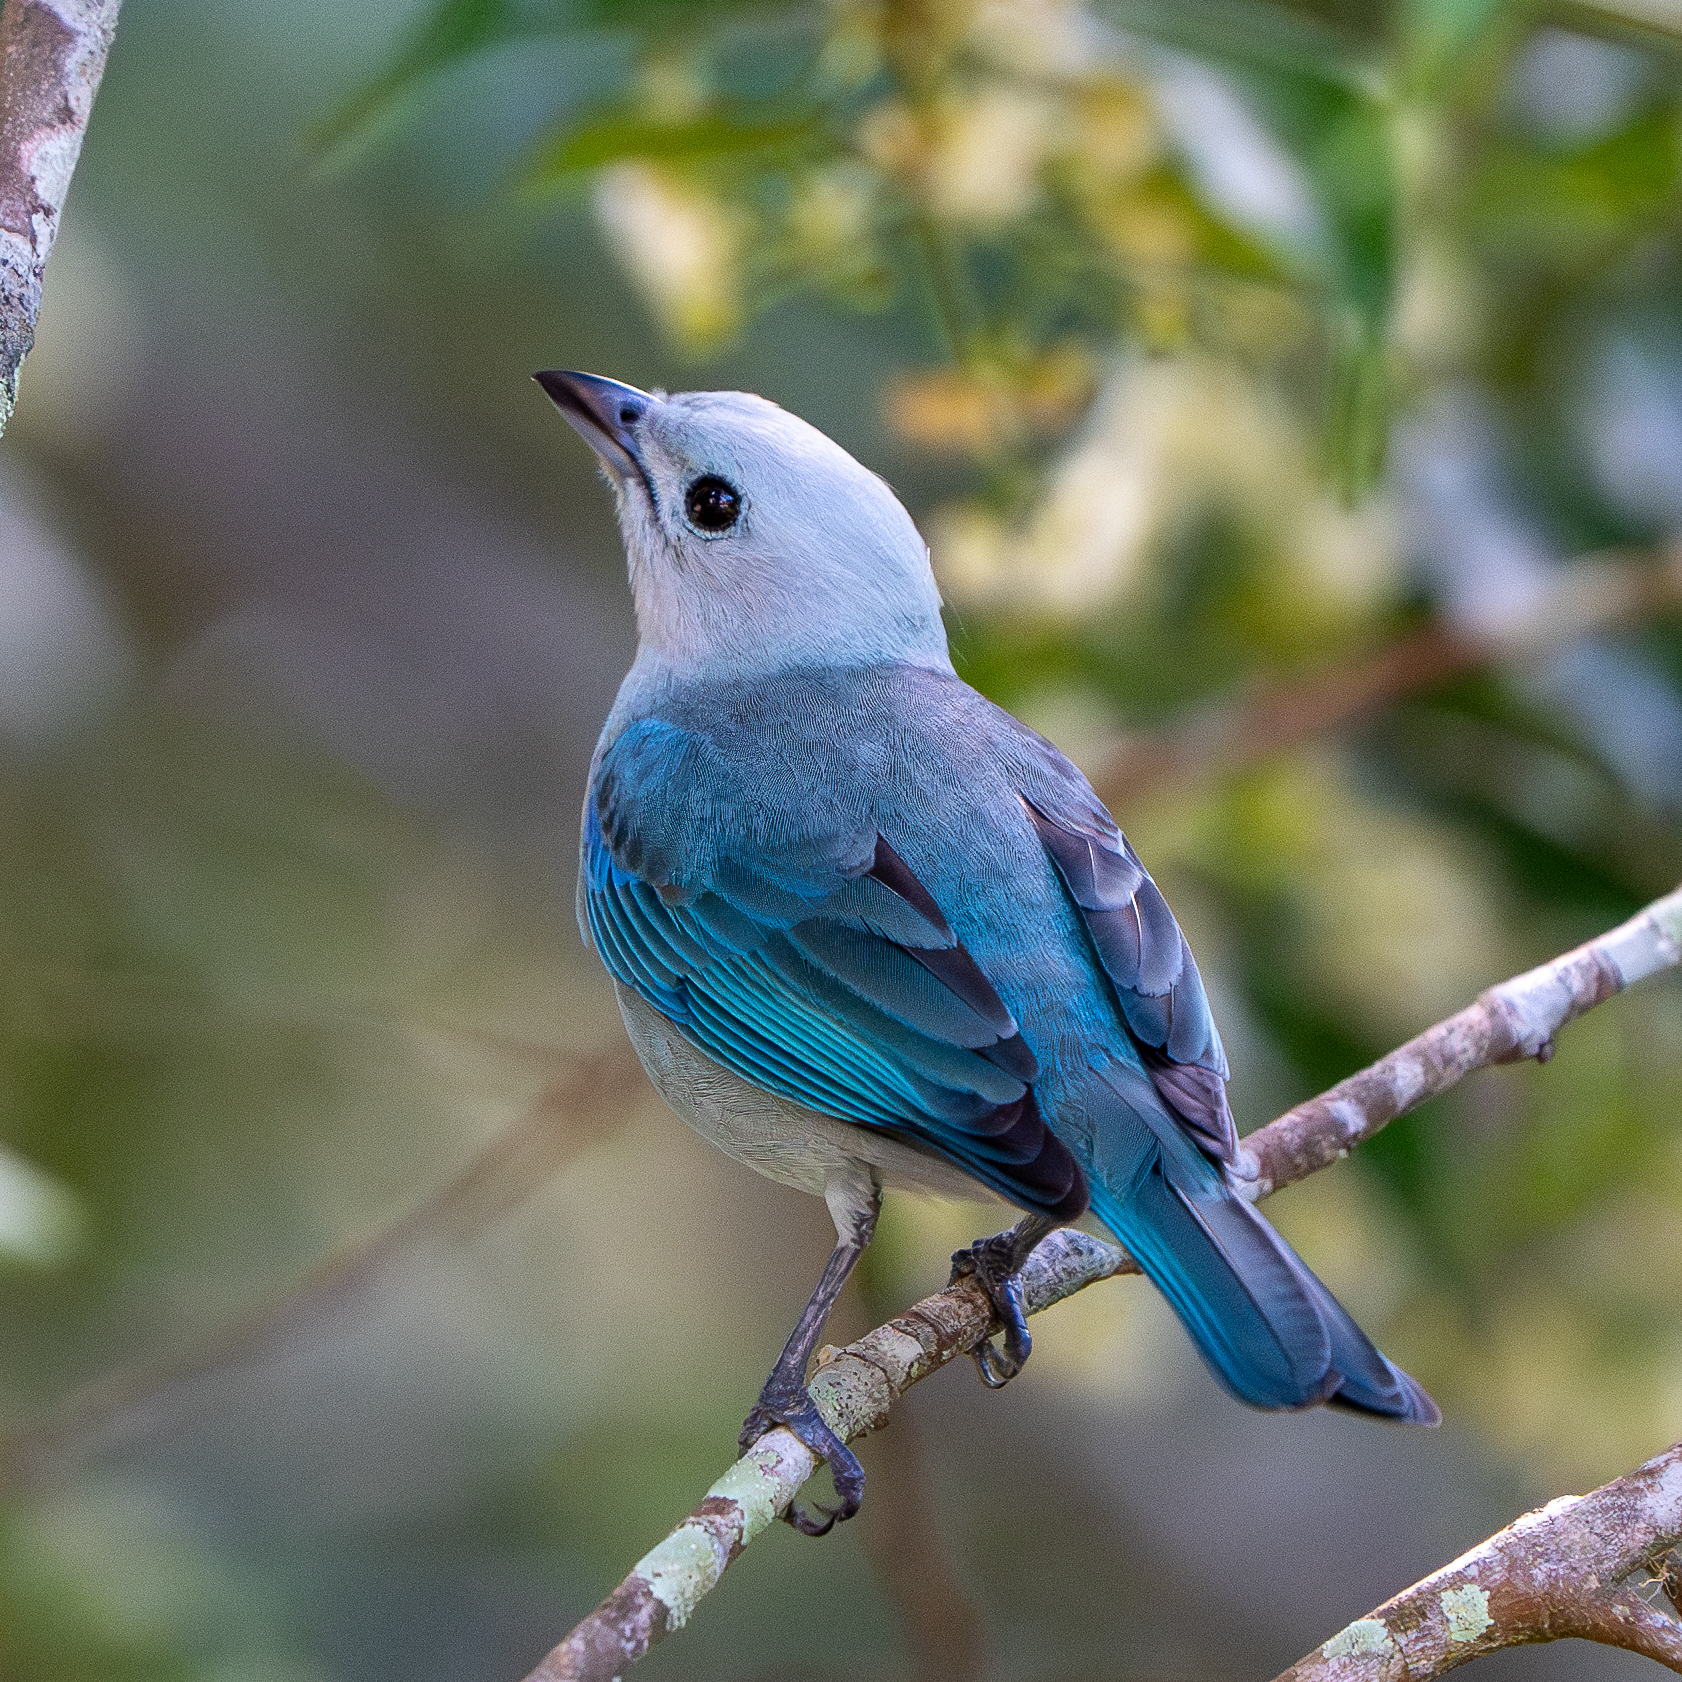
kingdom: Animalia
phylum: Chordata
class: Aves
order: Passeriformes
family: Thraupidae
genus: Thraupis
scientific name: Thraupis episcopus
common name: Blue-grey tanager
